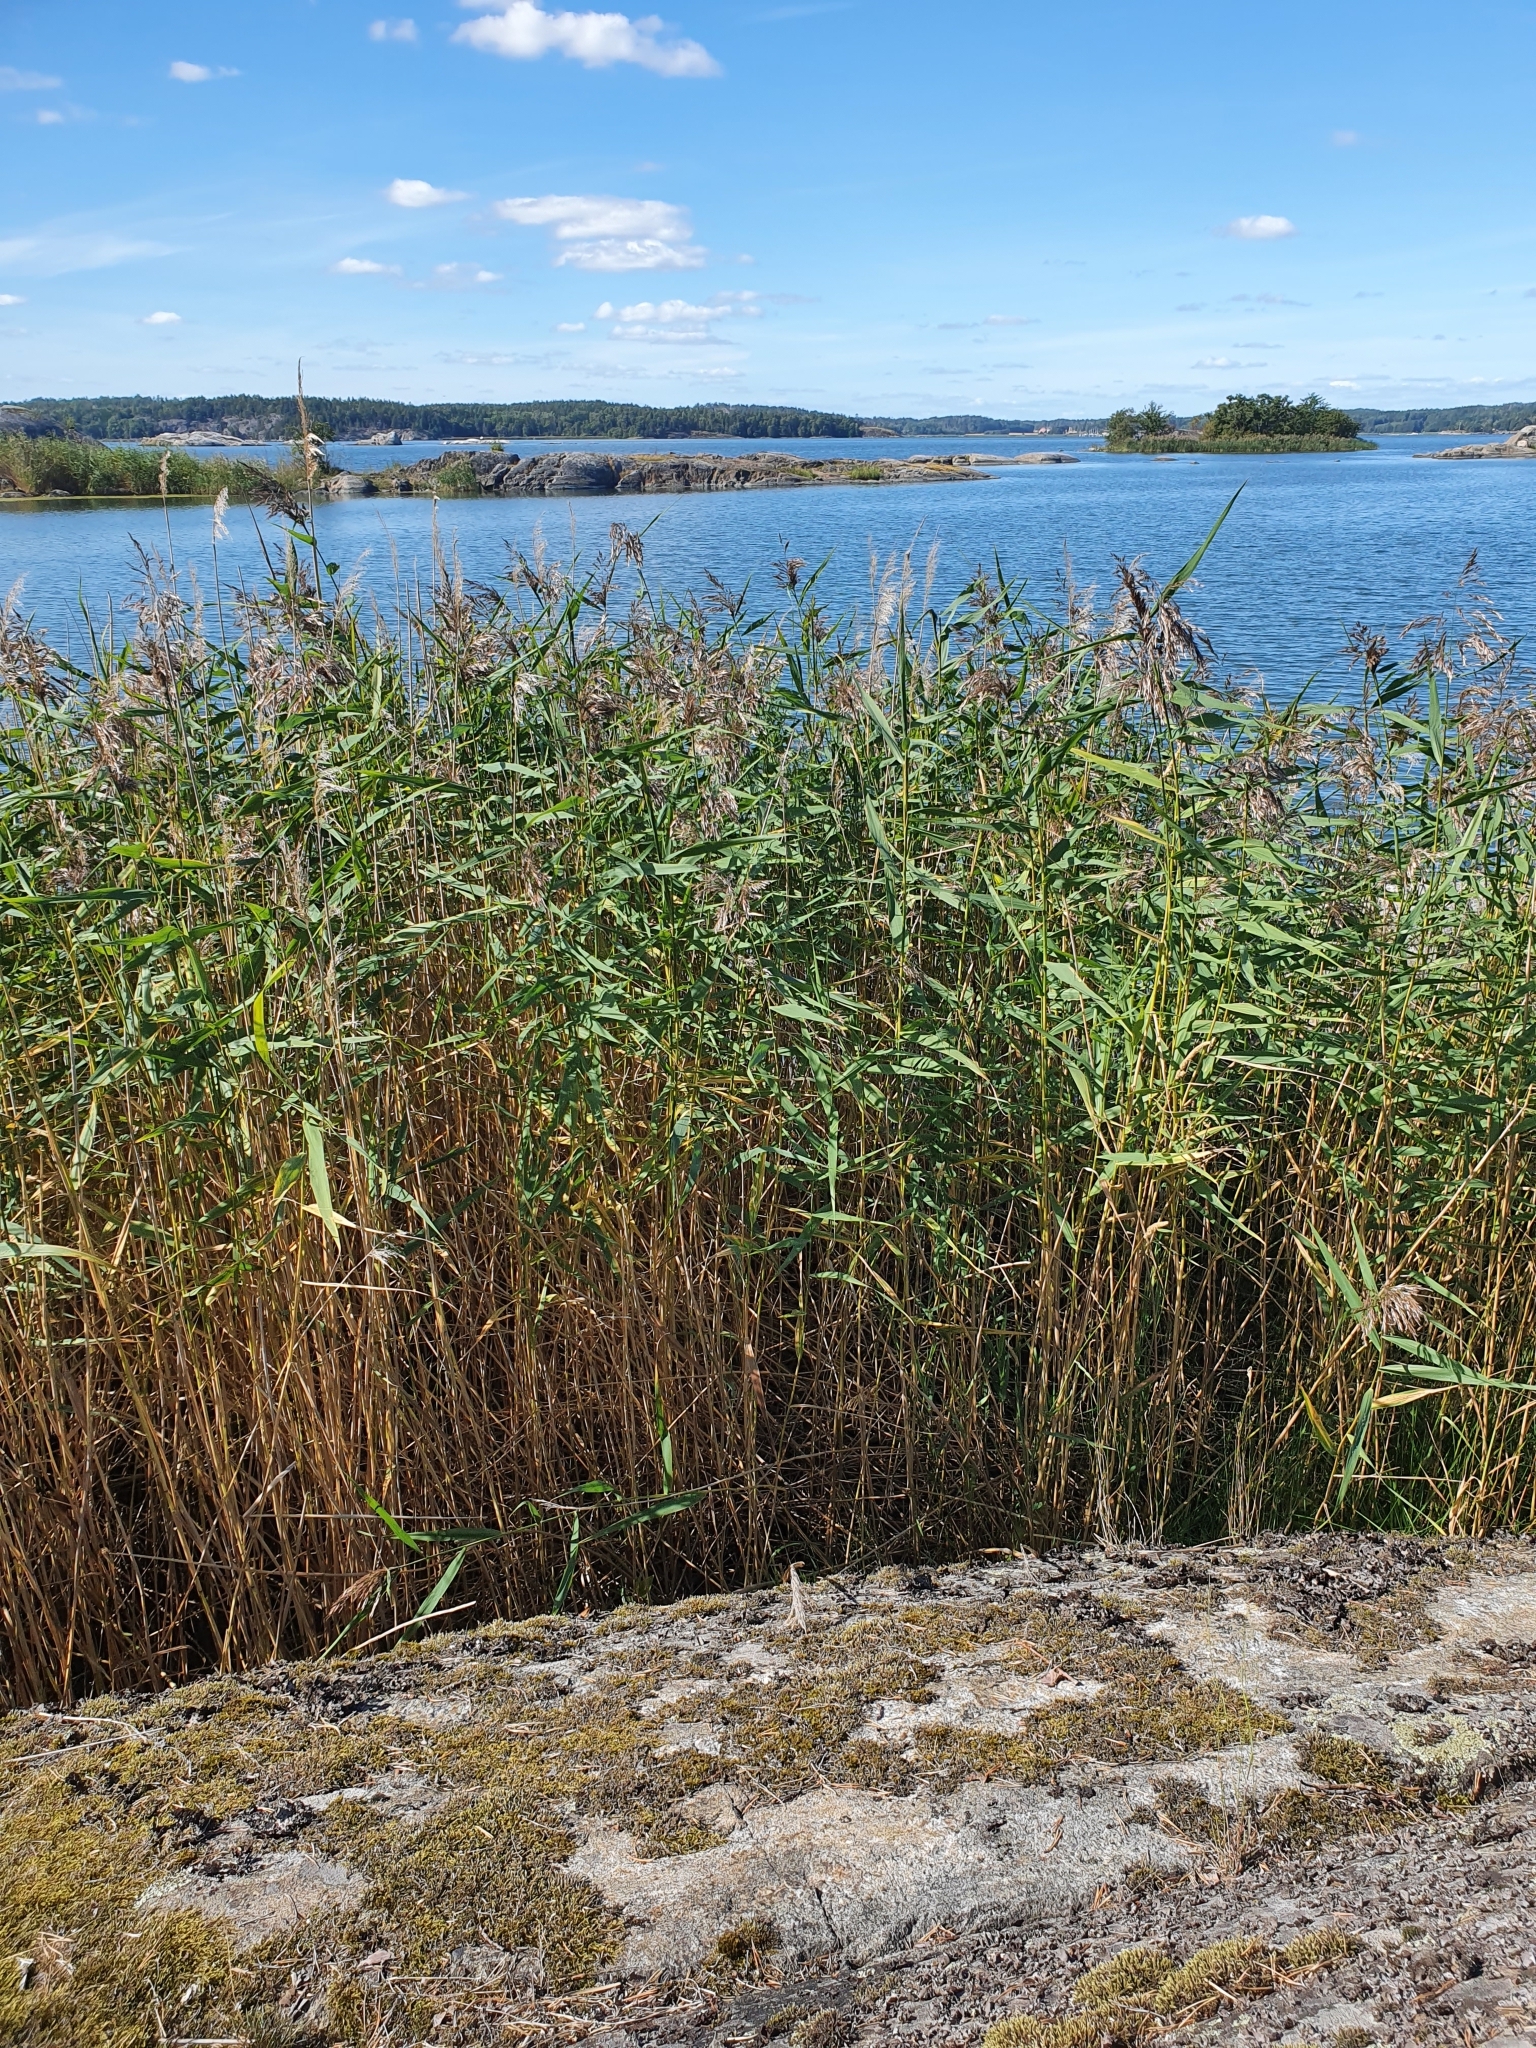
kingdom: Plantae
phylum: Tracheophyta
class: Liliopsida
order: Poales
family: Poaceae
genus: Phragmites
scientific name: Phragmites australis
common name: Common reed
